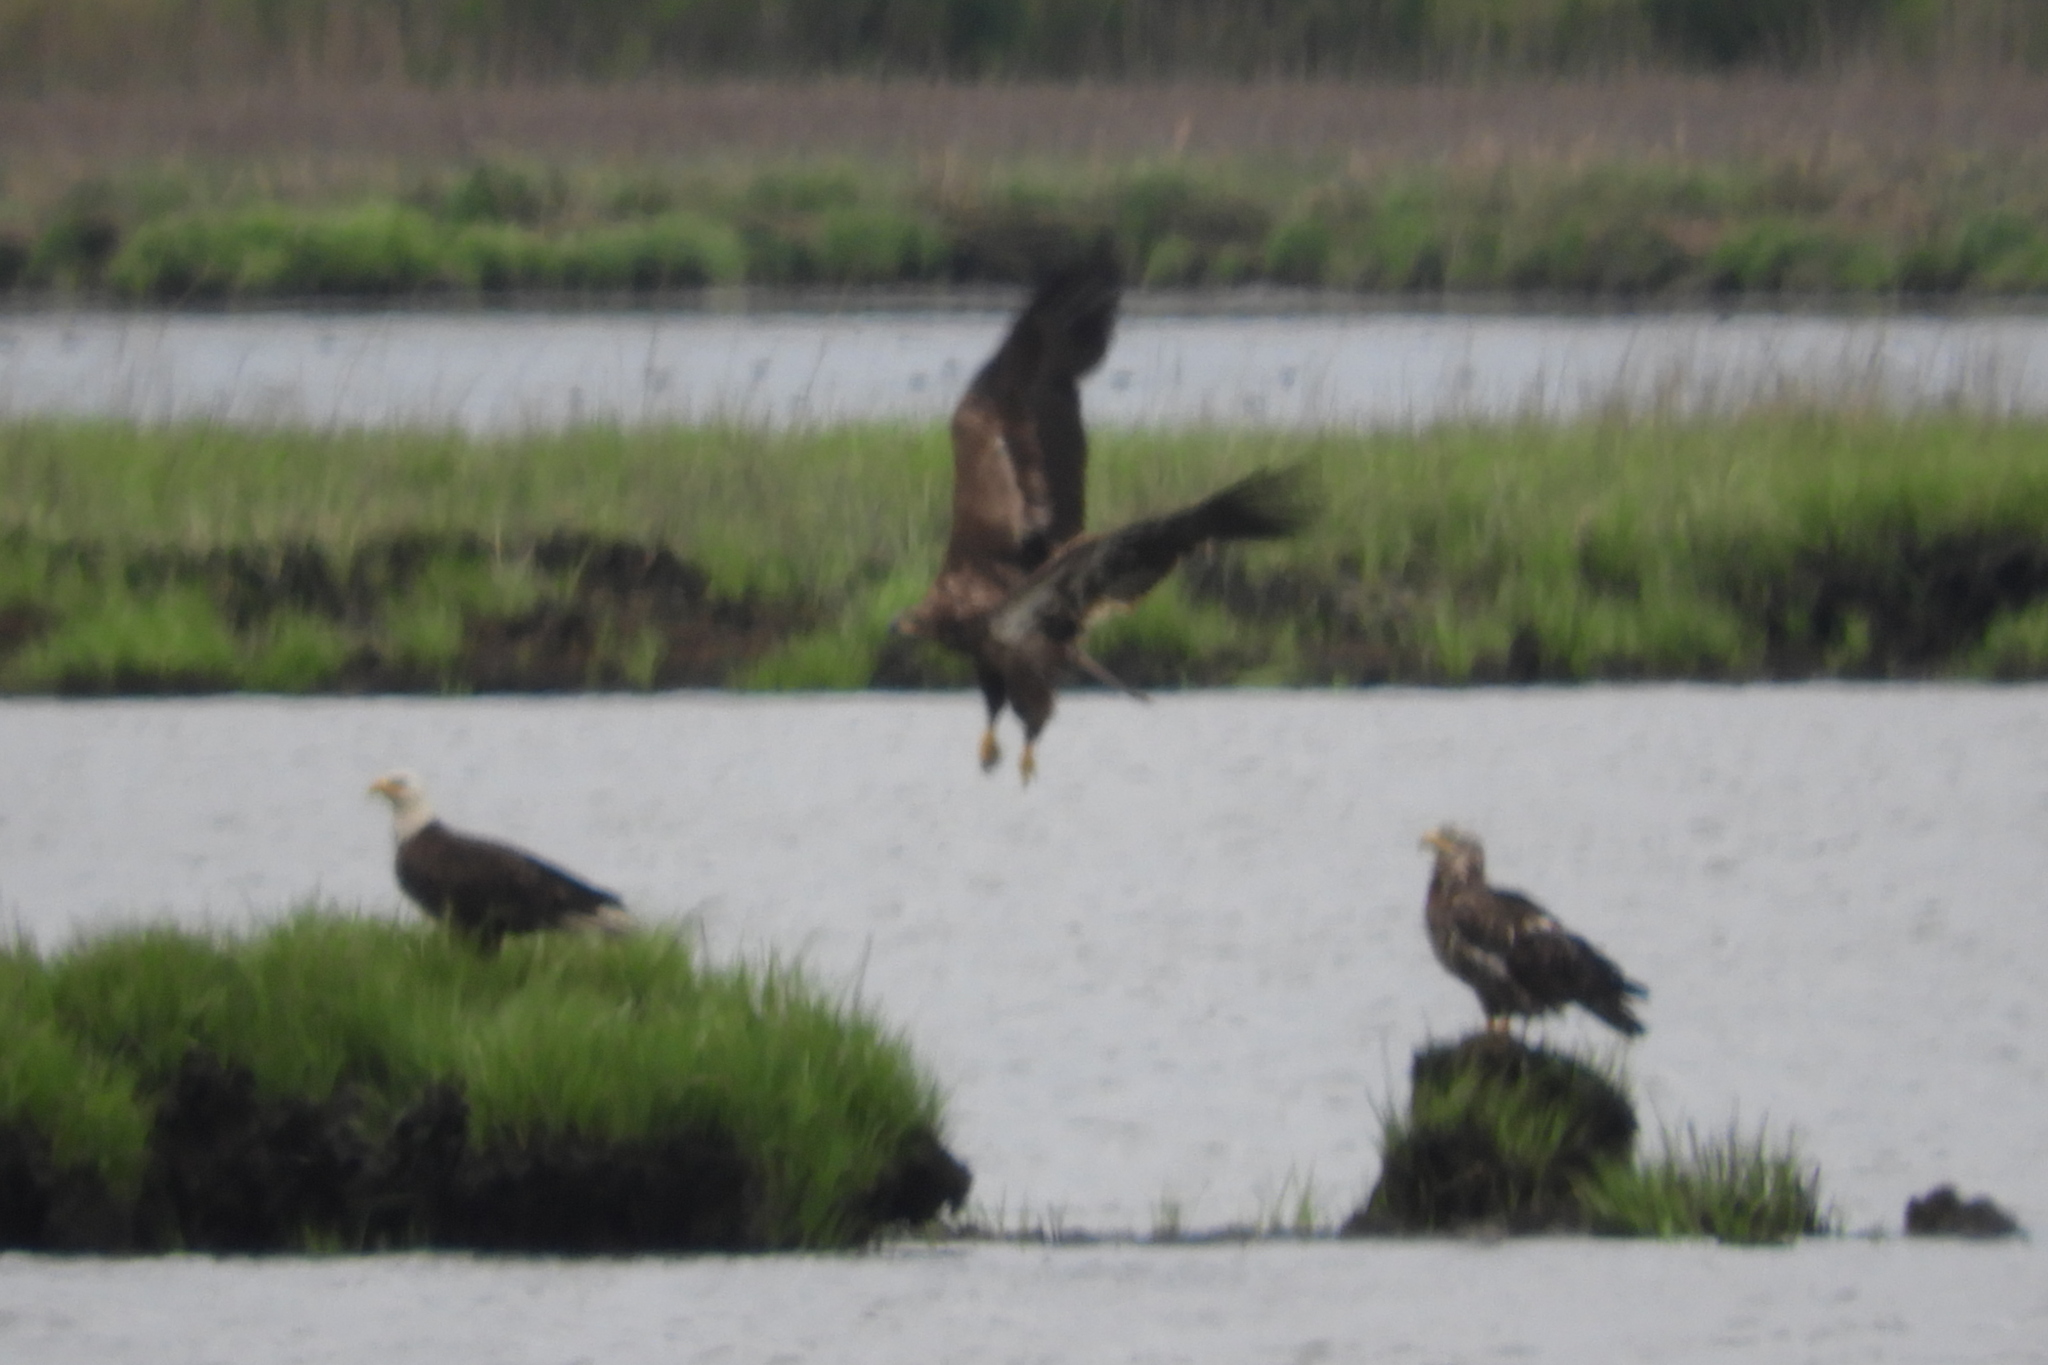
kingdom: Animalia
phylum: Chordata
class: Aves
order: Accipitriformes
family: Accipitridae
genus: Haliaeetus
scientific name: Haliaeetus leucocephalus
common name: Bald eagle
